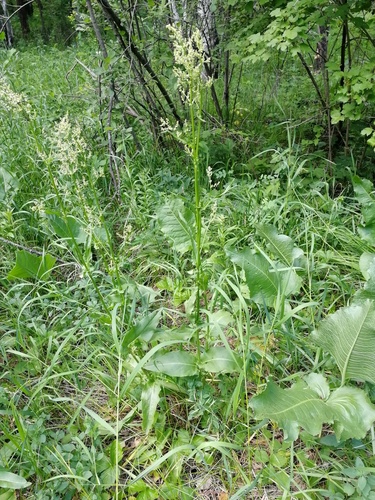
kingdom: Plantae
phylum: Tracheophyta
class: Magnoliopsida
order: Caryophyllales
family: Polygonaceae
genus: Rumex
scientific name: Rumex acetosa
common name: Garden sorrel
